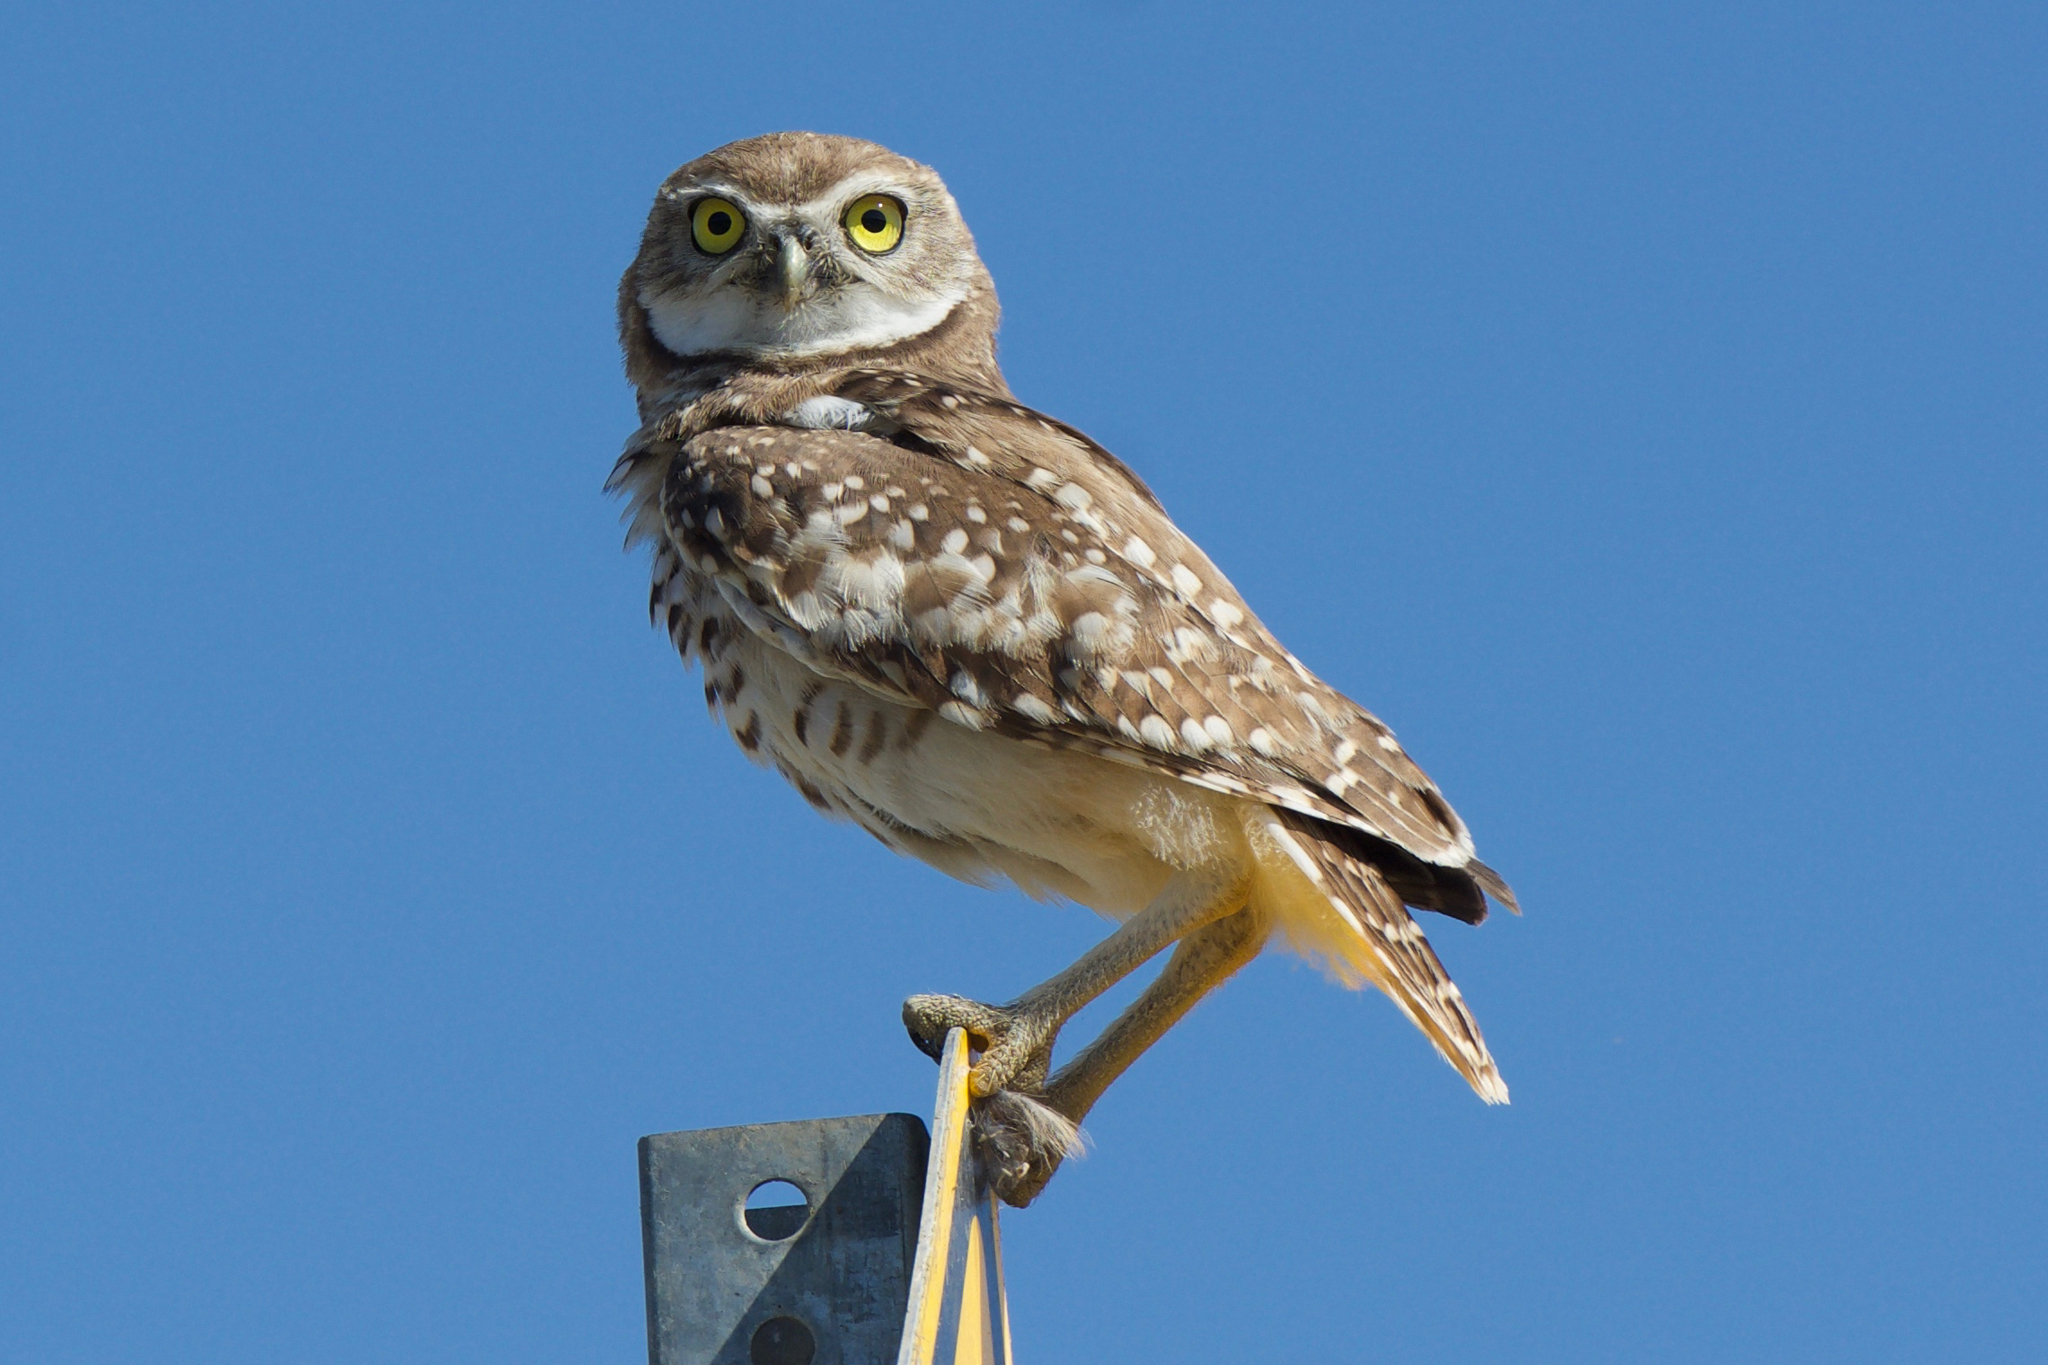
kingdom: Animalia
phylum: Chordata
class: Aves
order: Strigiformes
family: Strigidae
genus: Athene
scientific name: Athene cunicularia
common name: Burrowing owl
